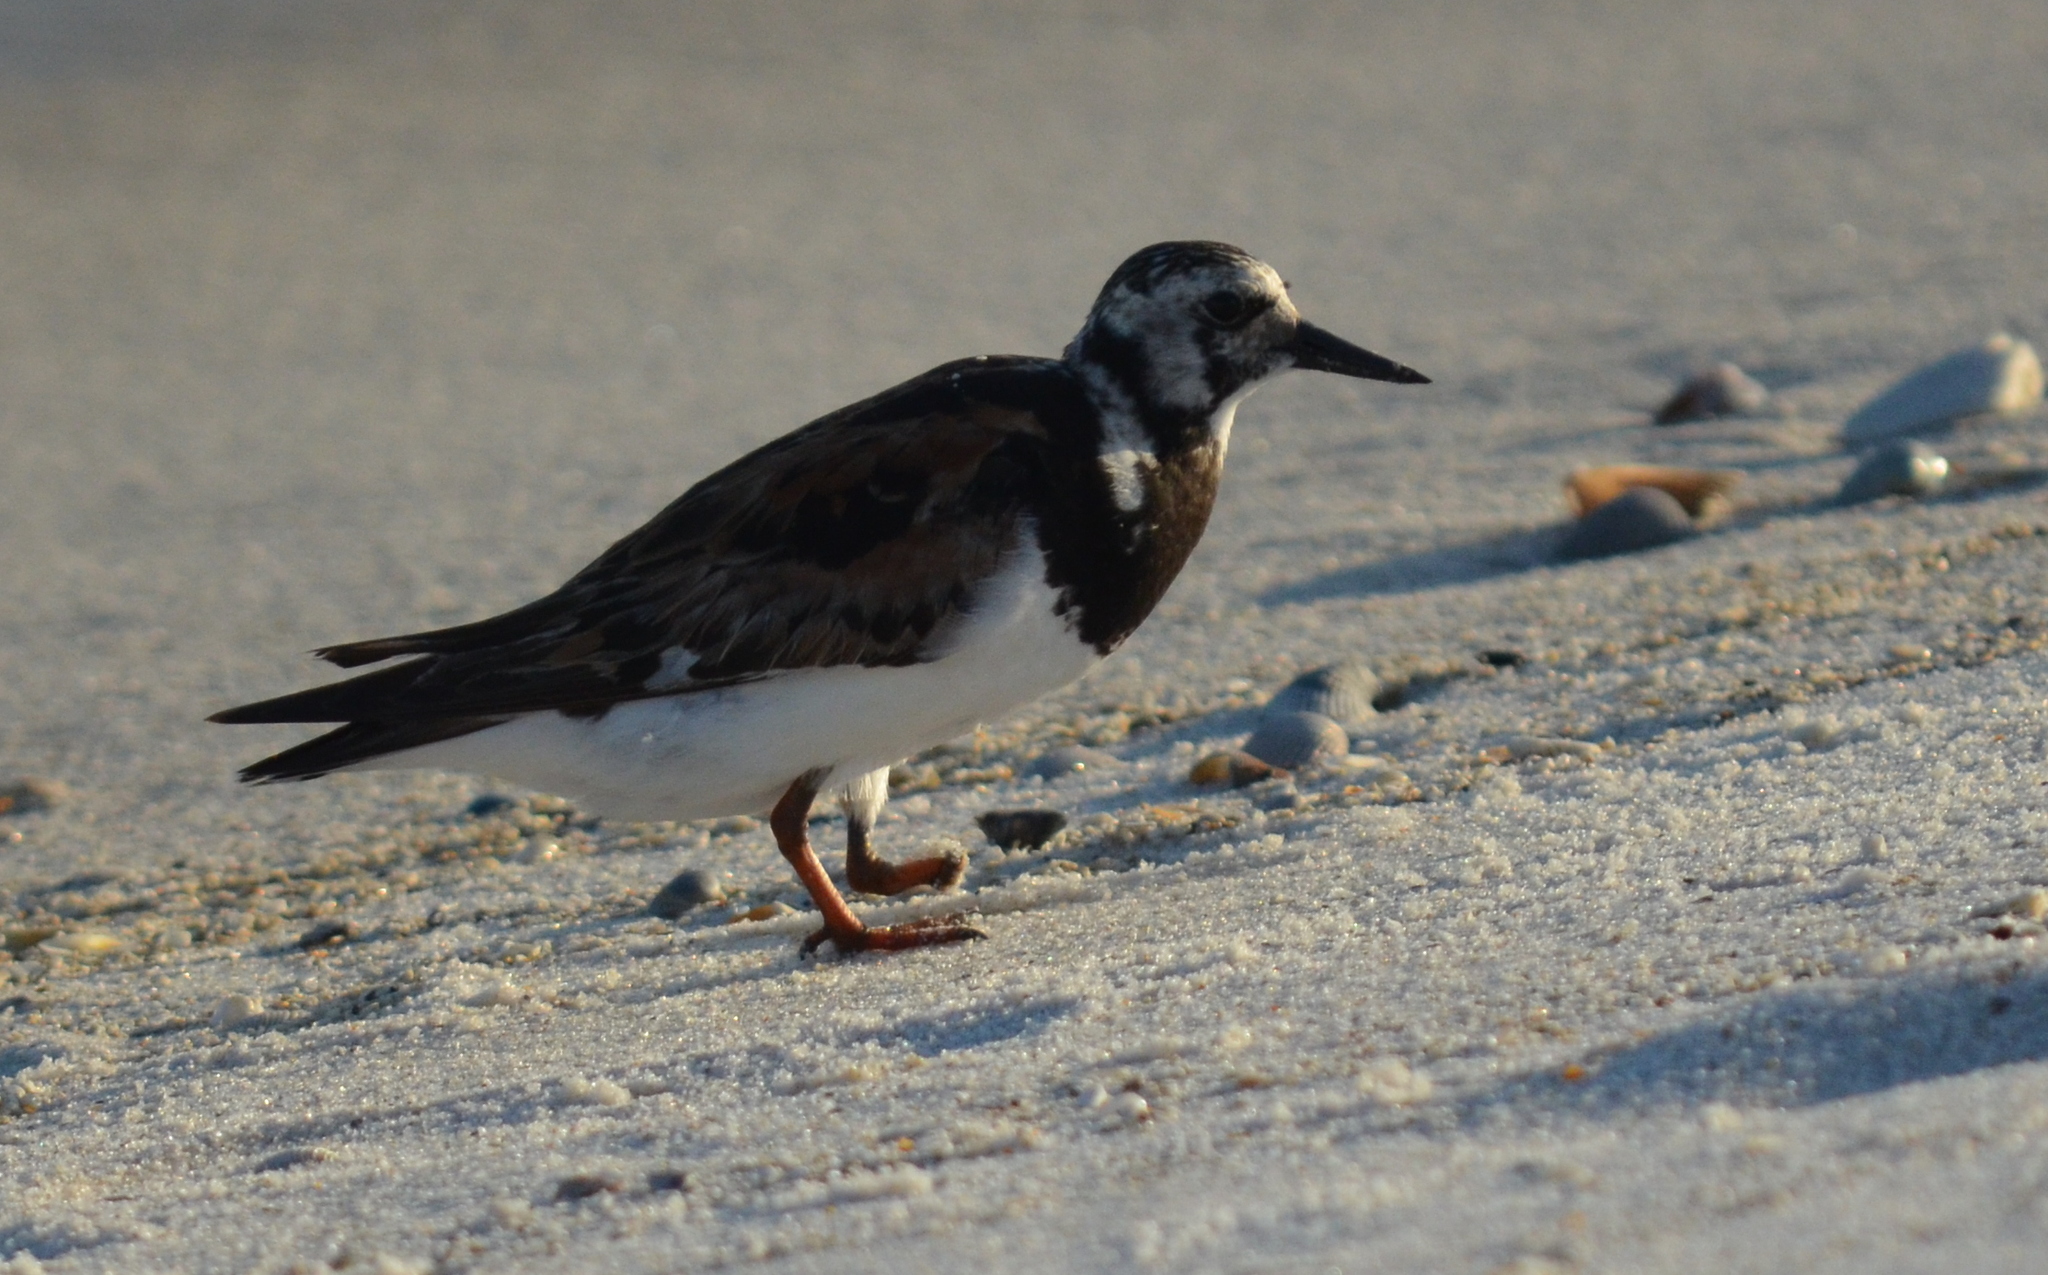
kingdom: Animalia
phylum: Chordata
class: Aves
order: Charadriiformes
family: Scolopacidae
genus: Arenaria
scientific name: Arenaria interpres
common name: Ruddy turnstone
